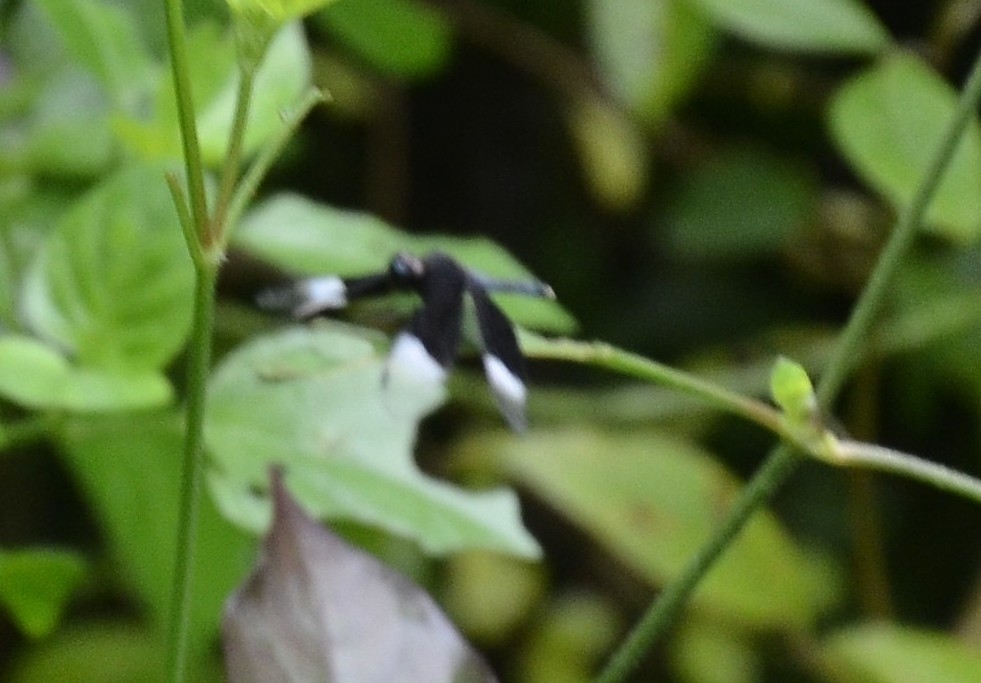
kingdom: Animalia
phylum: Arthropoda
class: Insecta
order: Odonata
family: Libellulidae
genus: Neurothemis
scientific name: Neurothemis tullia
